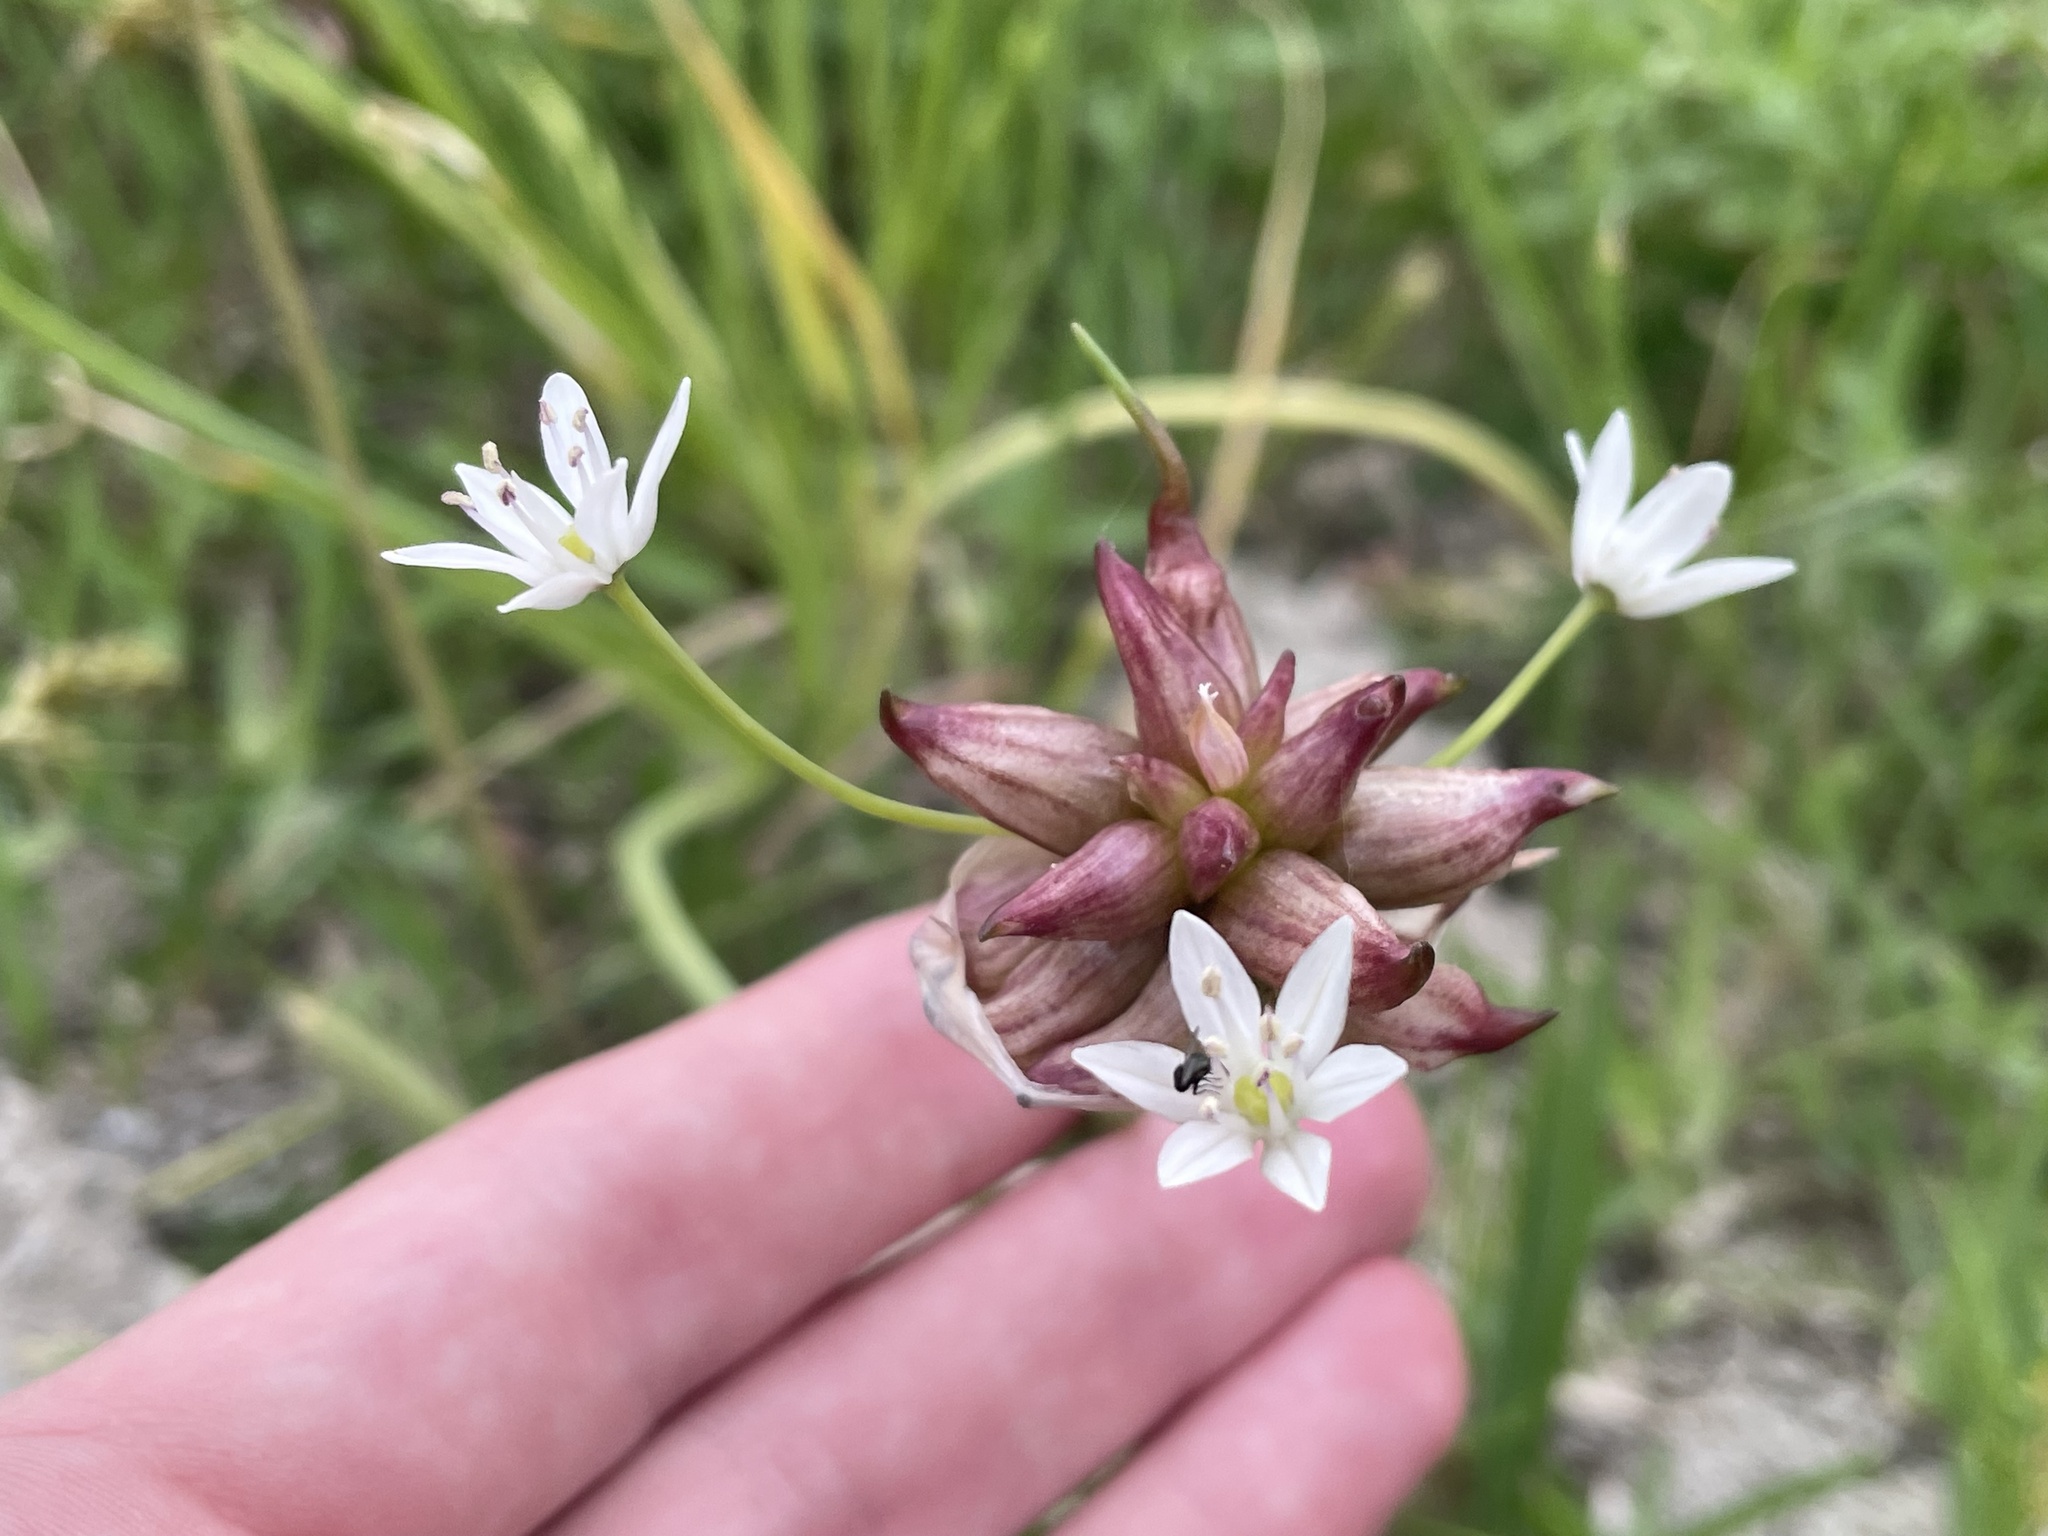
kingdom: Plantae
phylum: Tracheophyta
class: Liliopsida
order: Asparagales
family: Amaryllidaceae
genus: Allium
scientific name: Allium canadense
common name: Meadow garlic
